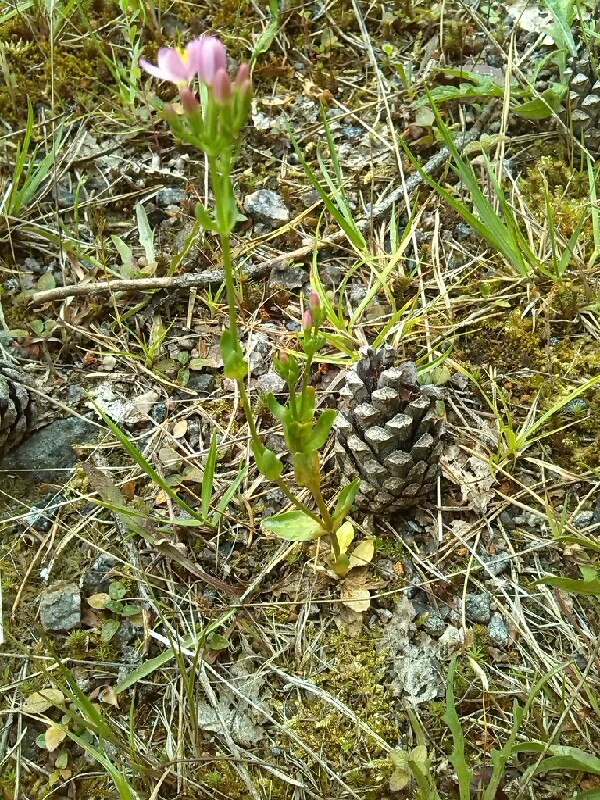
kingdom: Plantae
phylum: Tracheophyta
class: Magnoliopsida
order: Gentianales
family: Gentianaceae
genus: Centaurium
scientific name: Centaurium erythraea
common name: Common centaury
